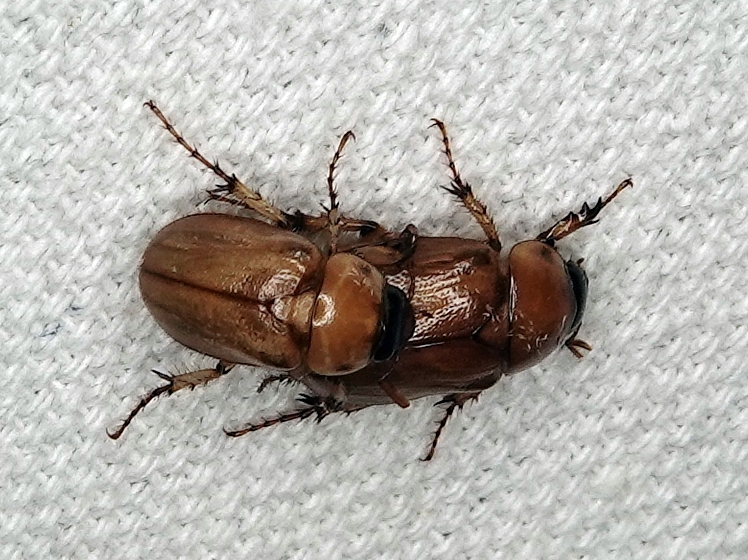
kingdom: Animalia
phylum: Arthropoda
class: Insecta
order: Coleoptera
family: Scarabaeidae
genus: Paranomala
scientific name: Paranomala cavifrons
